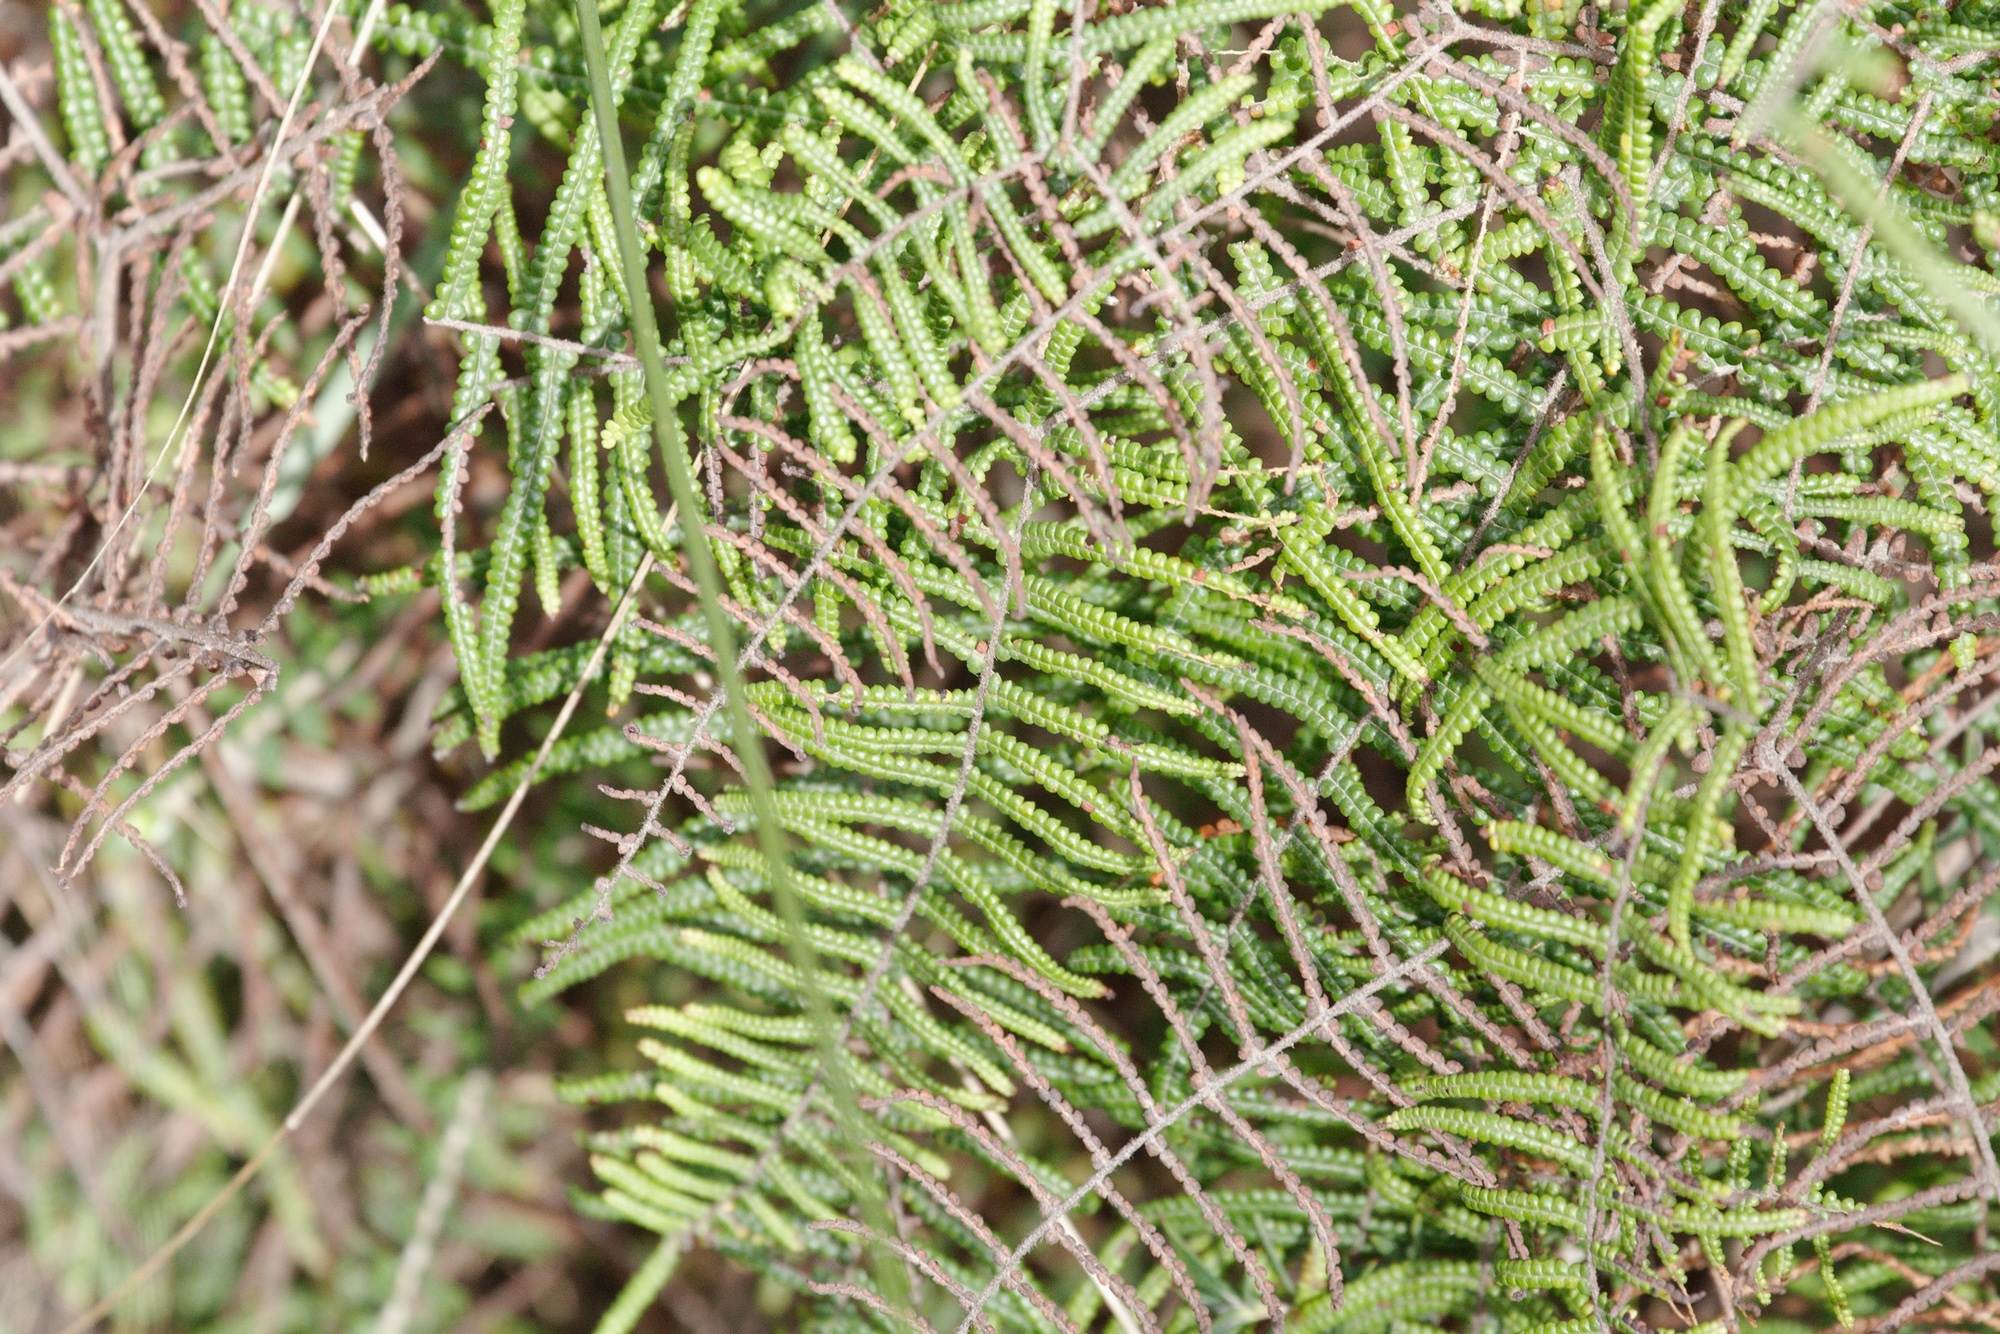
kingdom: Plantae
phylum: Tracheophyta
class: Polypodiopsida
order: Gleicheniales
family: Gleicheniaceae
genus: Gleichenia
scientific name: Gleichenia microphylla
